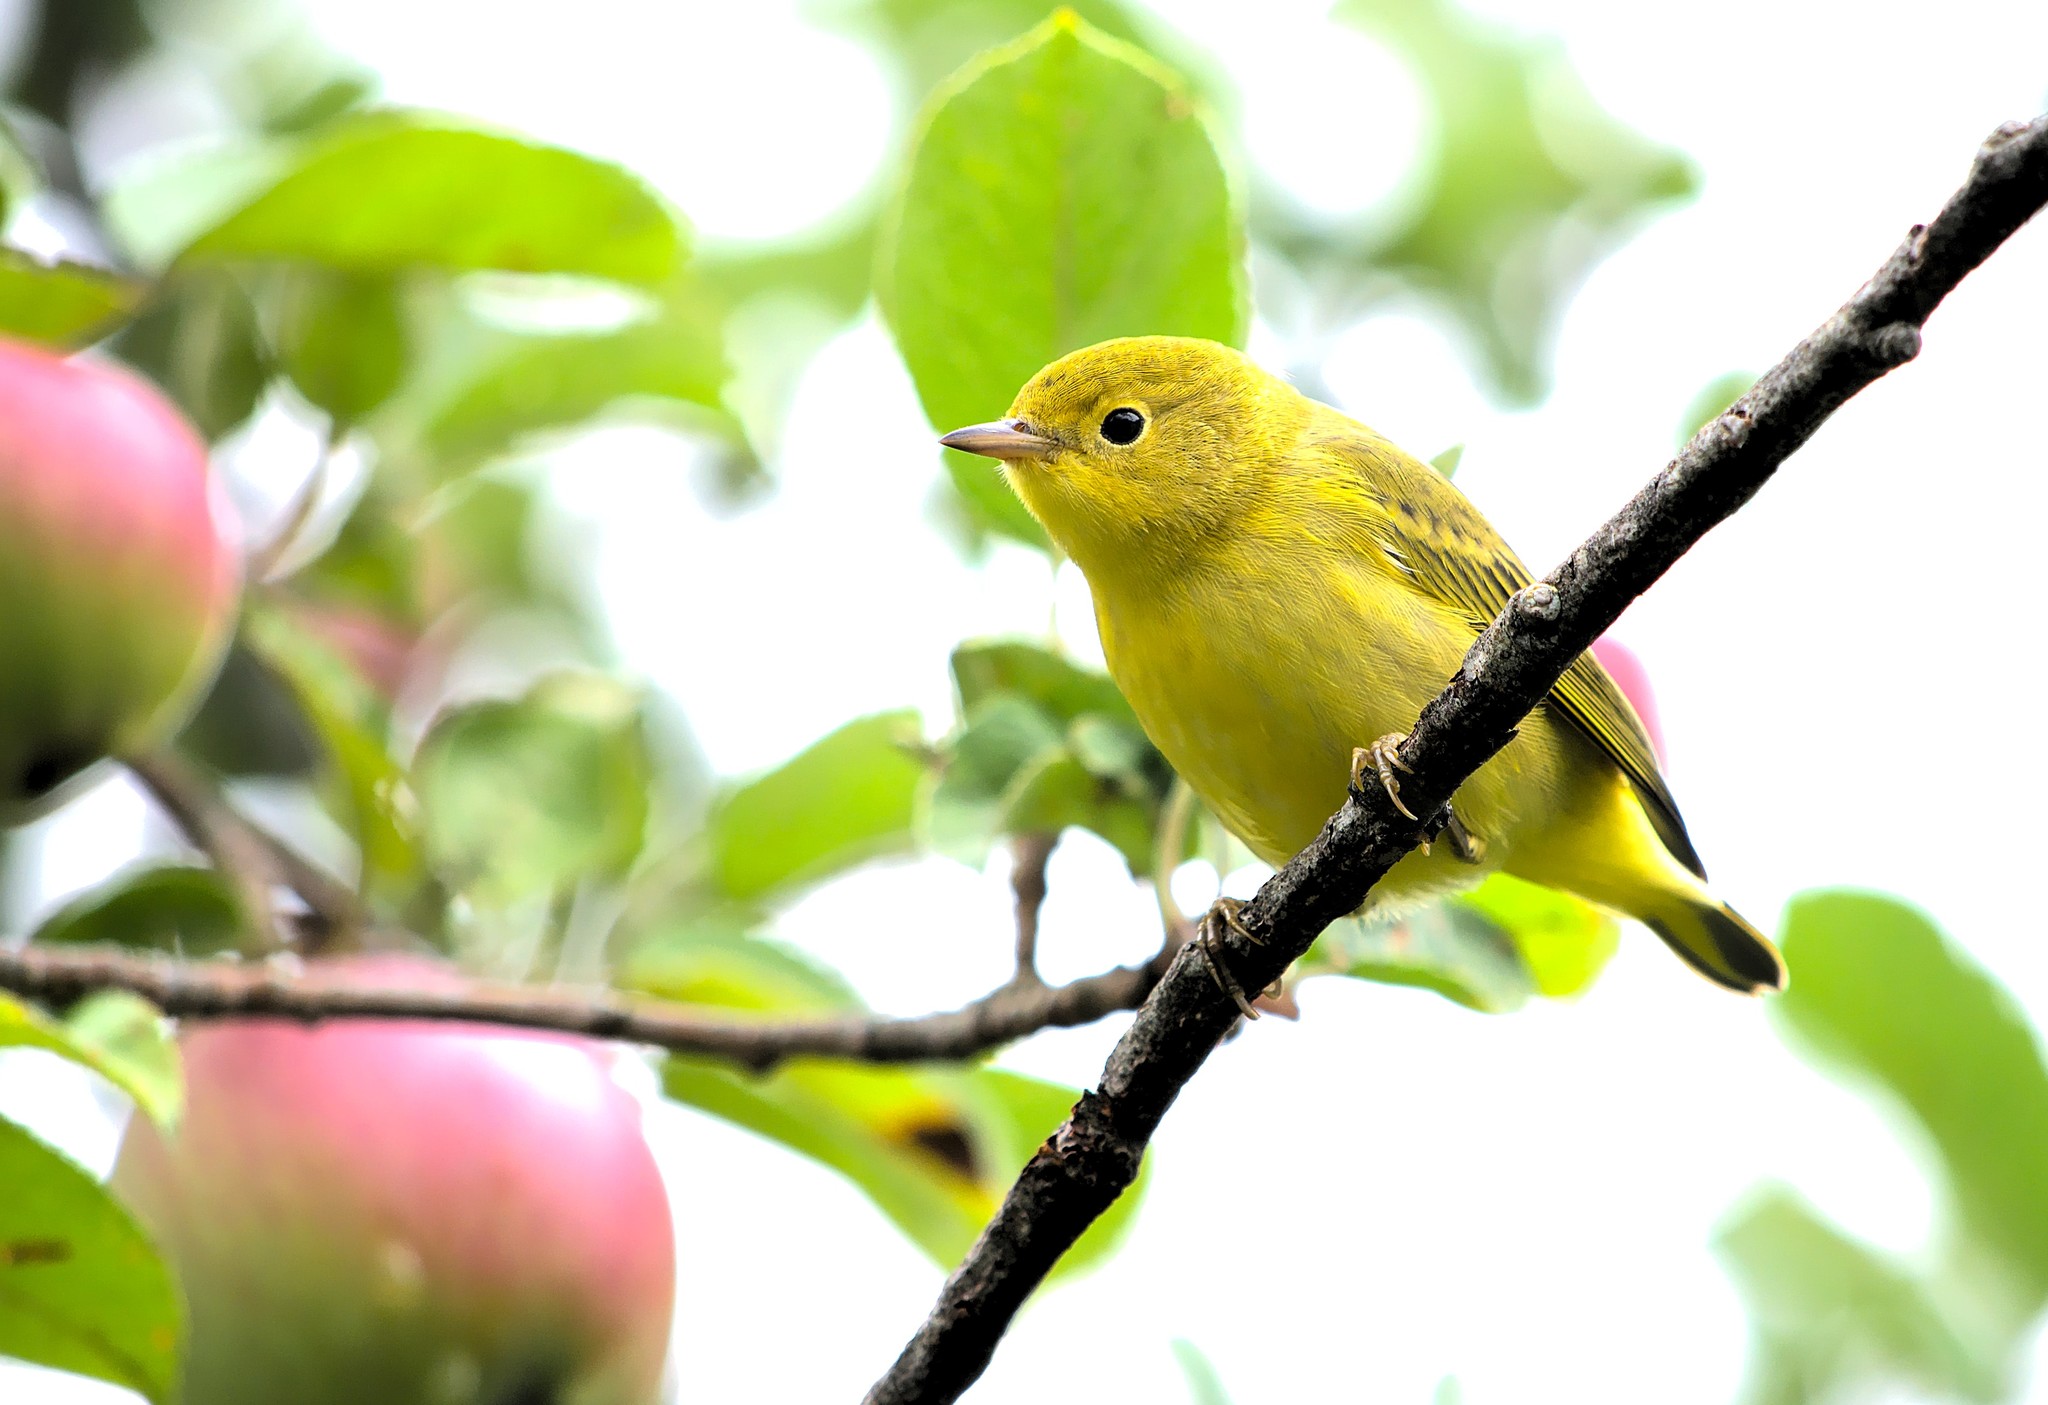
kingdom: Animalia
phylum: Chordata
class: Aves
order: Passeriformes
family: Parulidae
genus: Setophaga
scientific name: Setophaga petechia
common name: Yellow warbler
